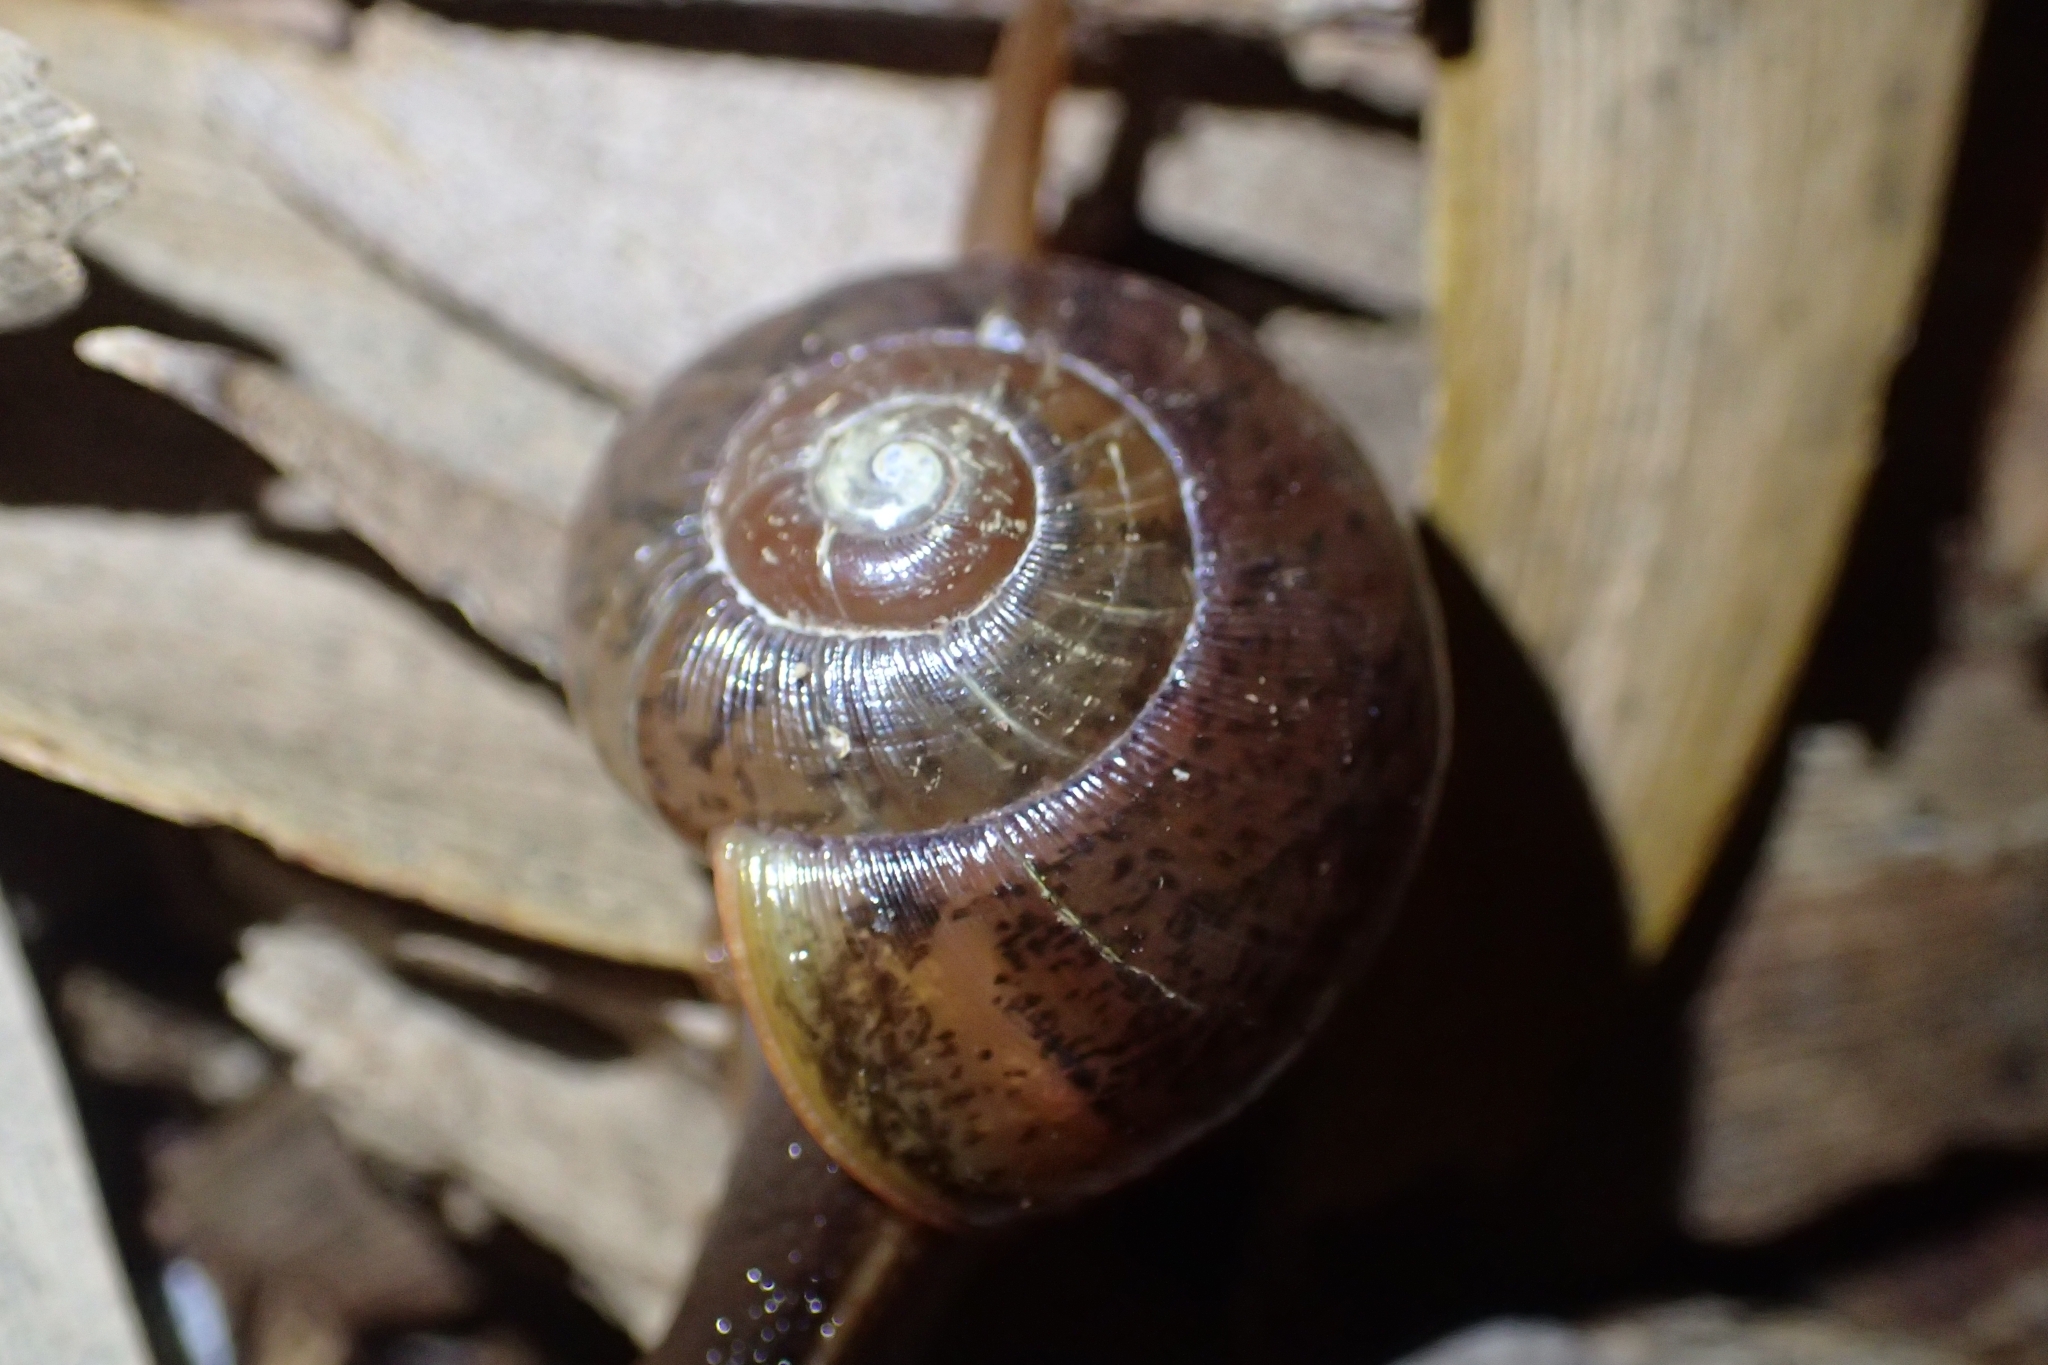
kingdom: Animalia
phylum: Mollusca
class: Gastropoda
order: Stylommatophora
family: Rhytididae
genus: Terrycarlessia
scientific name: Terrycarlessia turbinata
